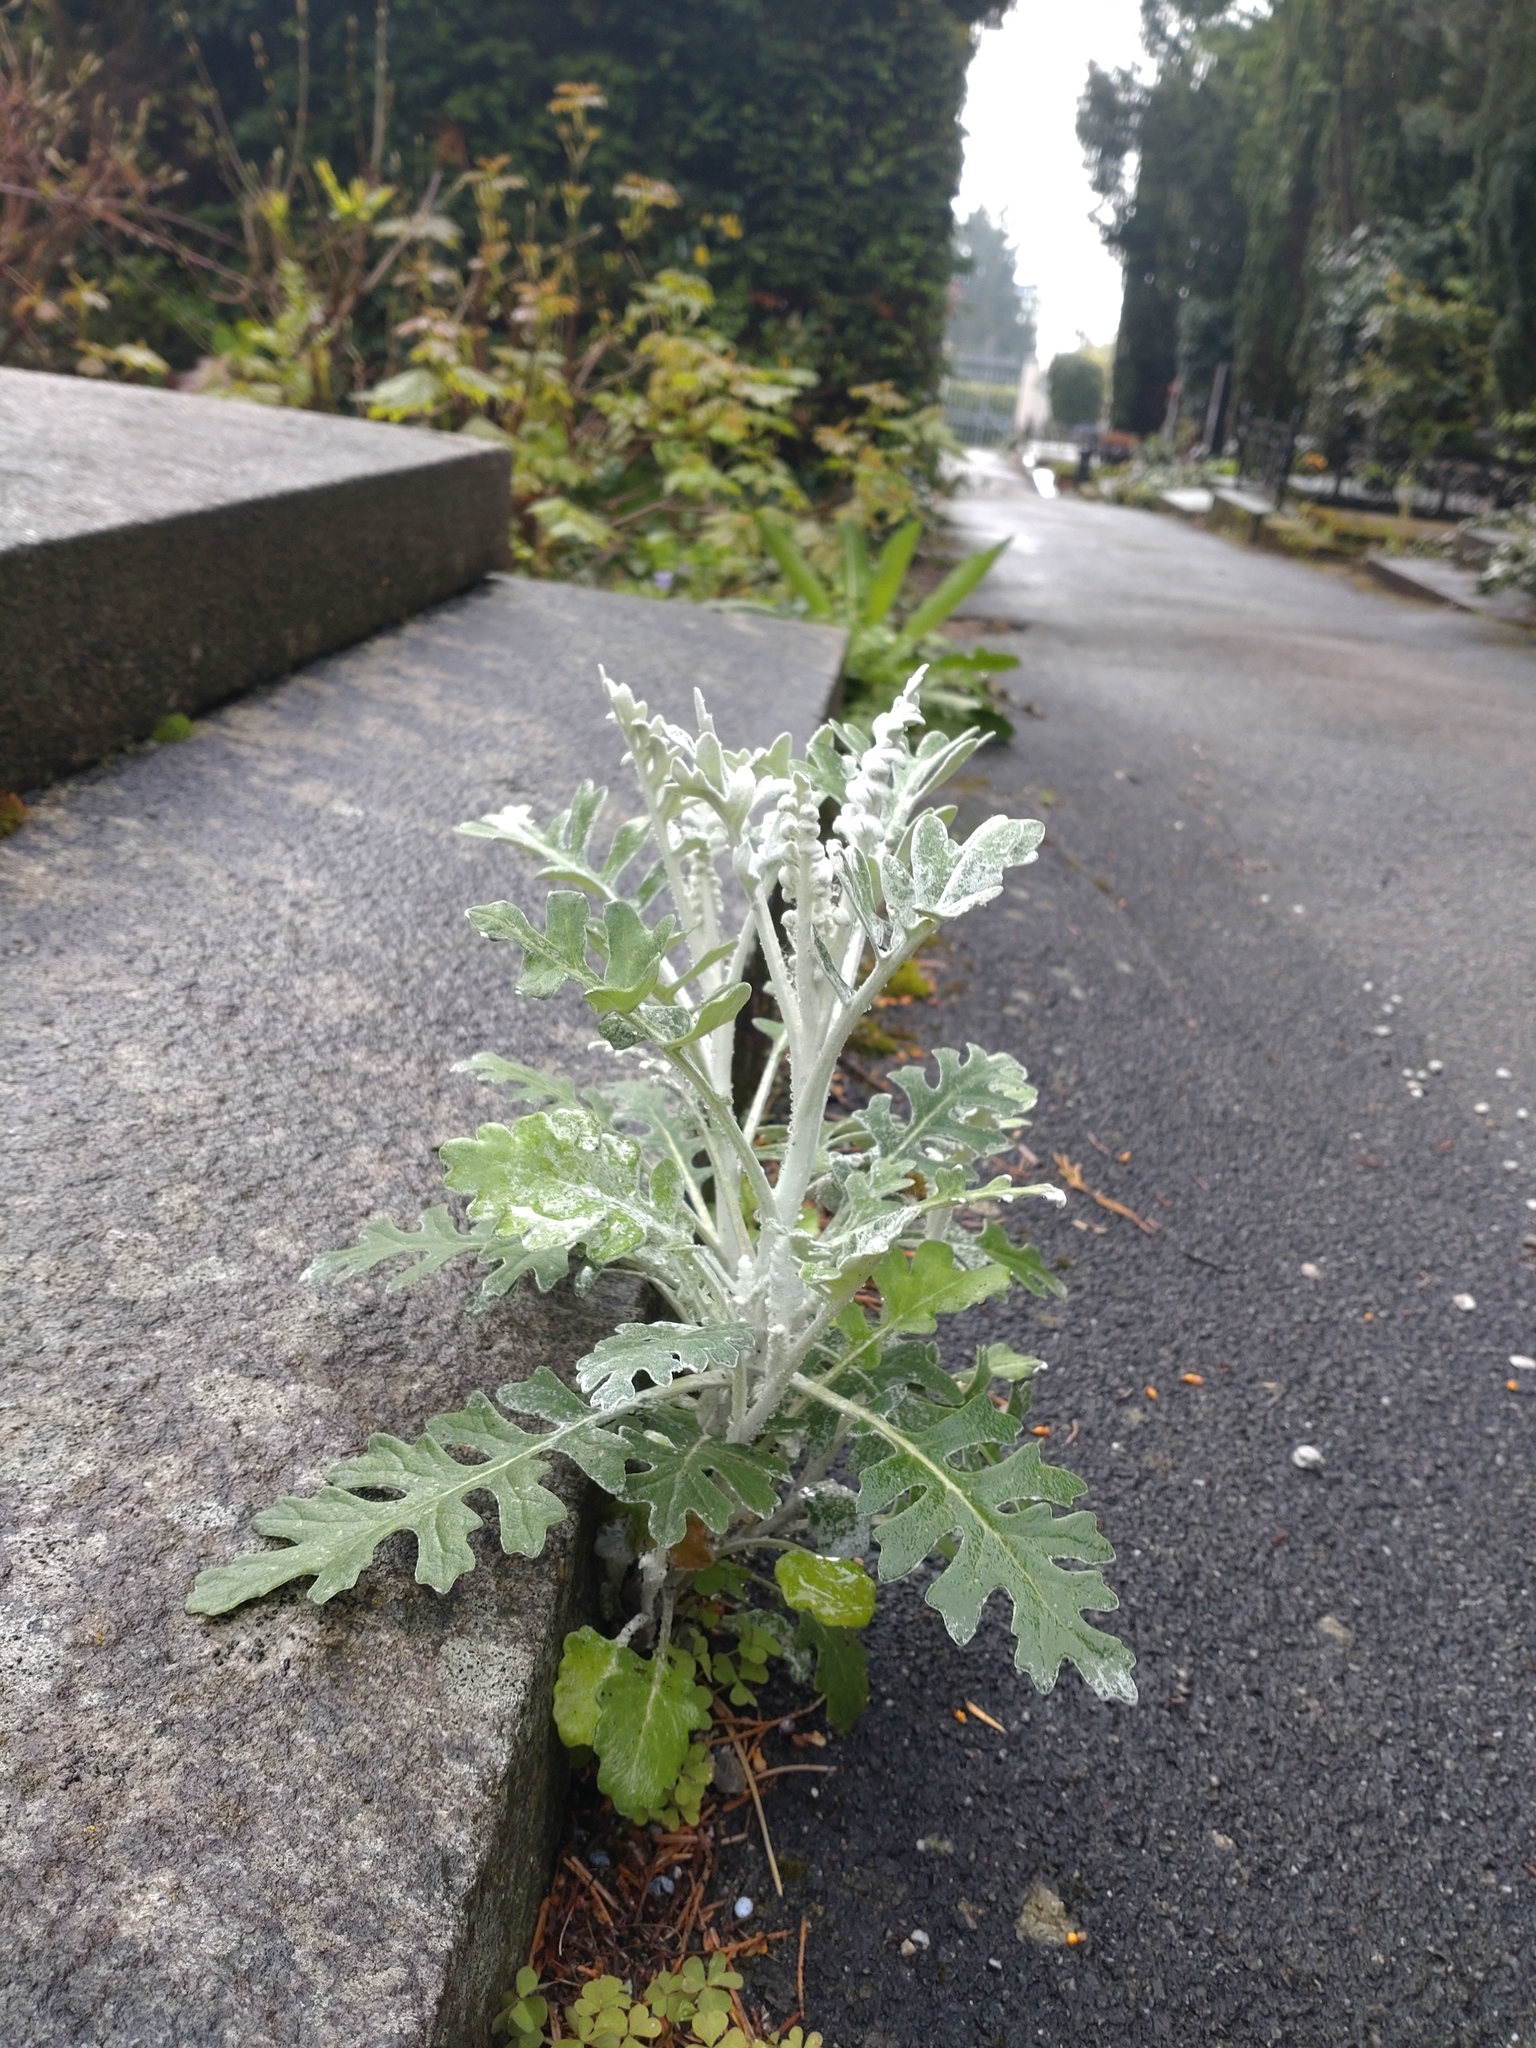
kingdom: Plantae
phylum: Tracheophyta
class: Magnoliopsida
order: Asterales
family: Asteraceae
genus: Jacobaea
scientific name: Jacobaea maritima
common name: Silver ragwort
